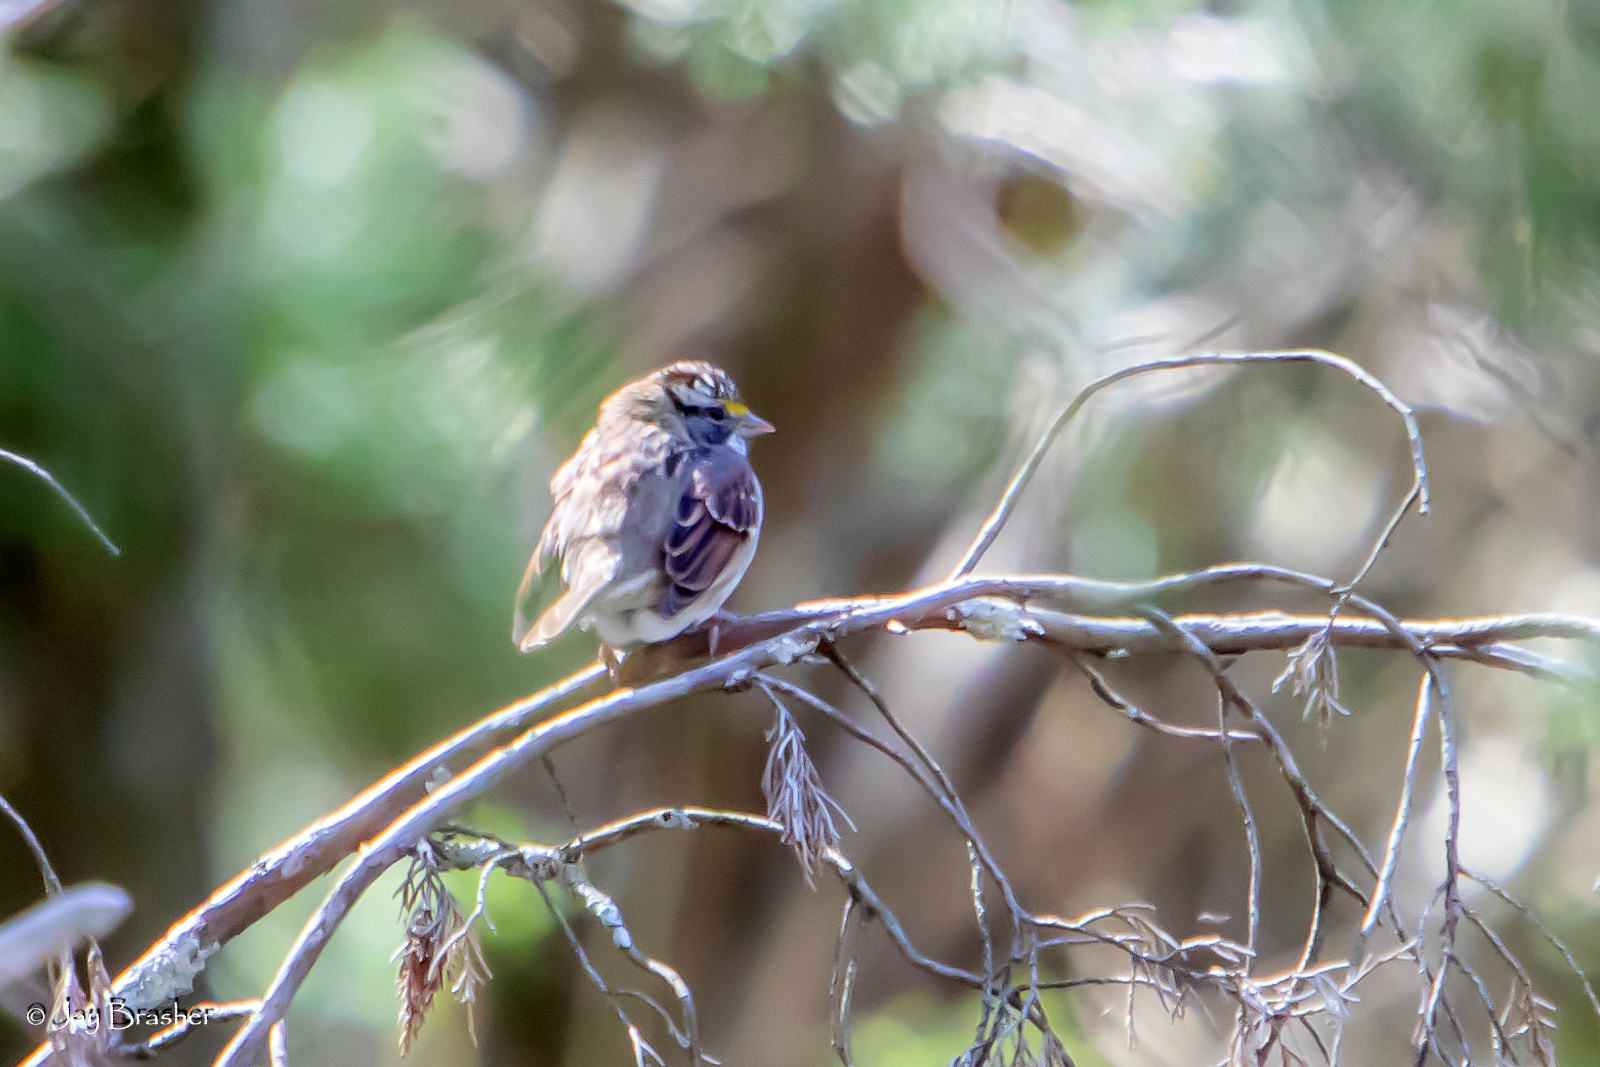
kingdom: Animalia
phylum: Chordata
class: Aves
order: Passeriformes
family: Passerellidae
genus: Zonotrichia
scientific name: Zonotrichia albicollis
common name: White-throated sparrow
